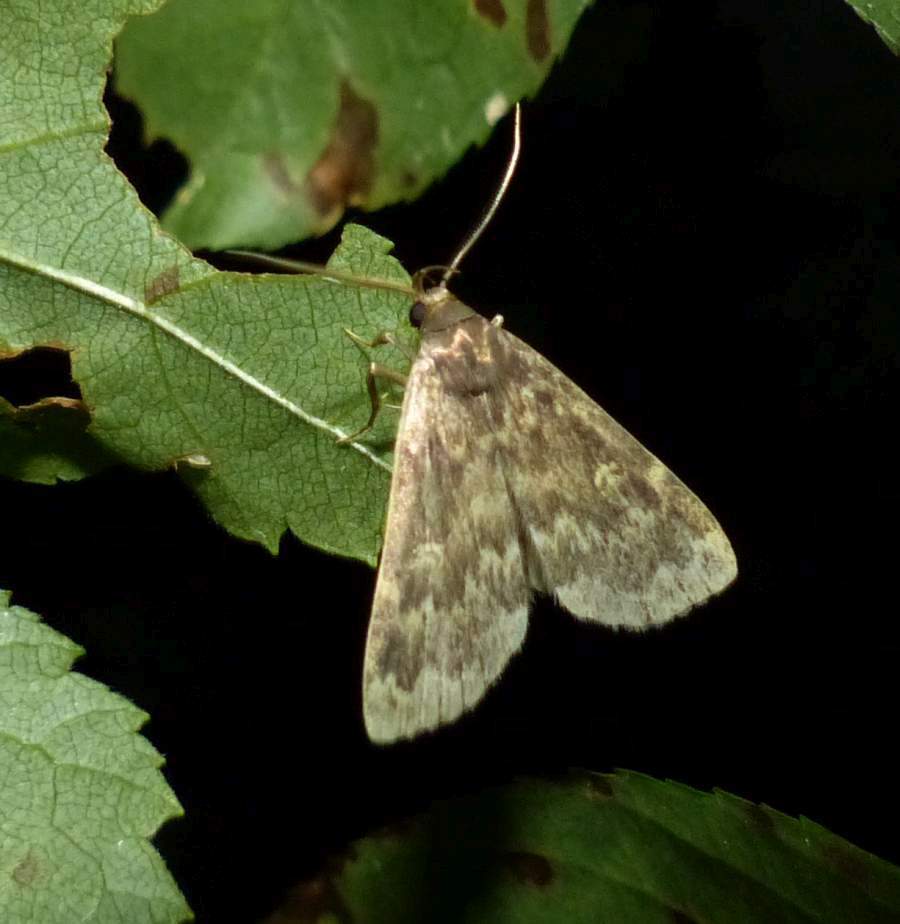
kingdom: Animalia
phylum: Arthropoda
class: Insecta
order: Lepidoptera
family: Erebidae
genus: Idia
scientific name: Idia lubricalis
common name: Twin-striped tabby
